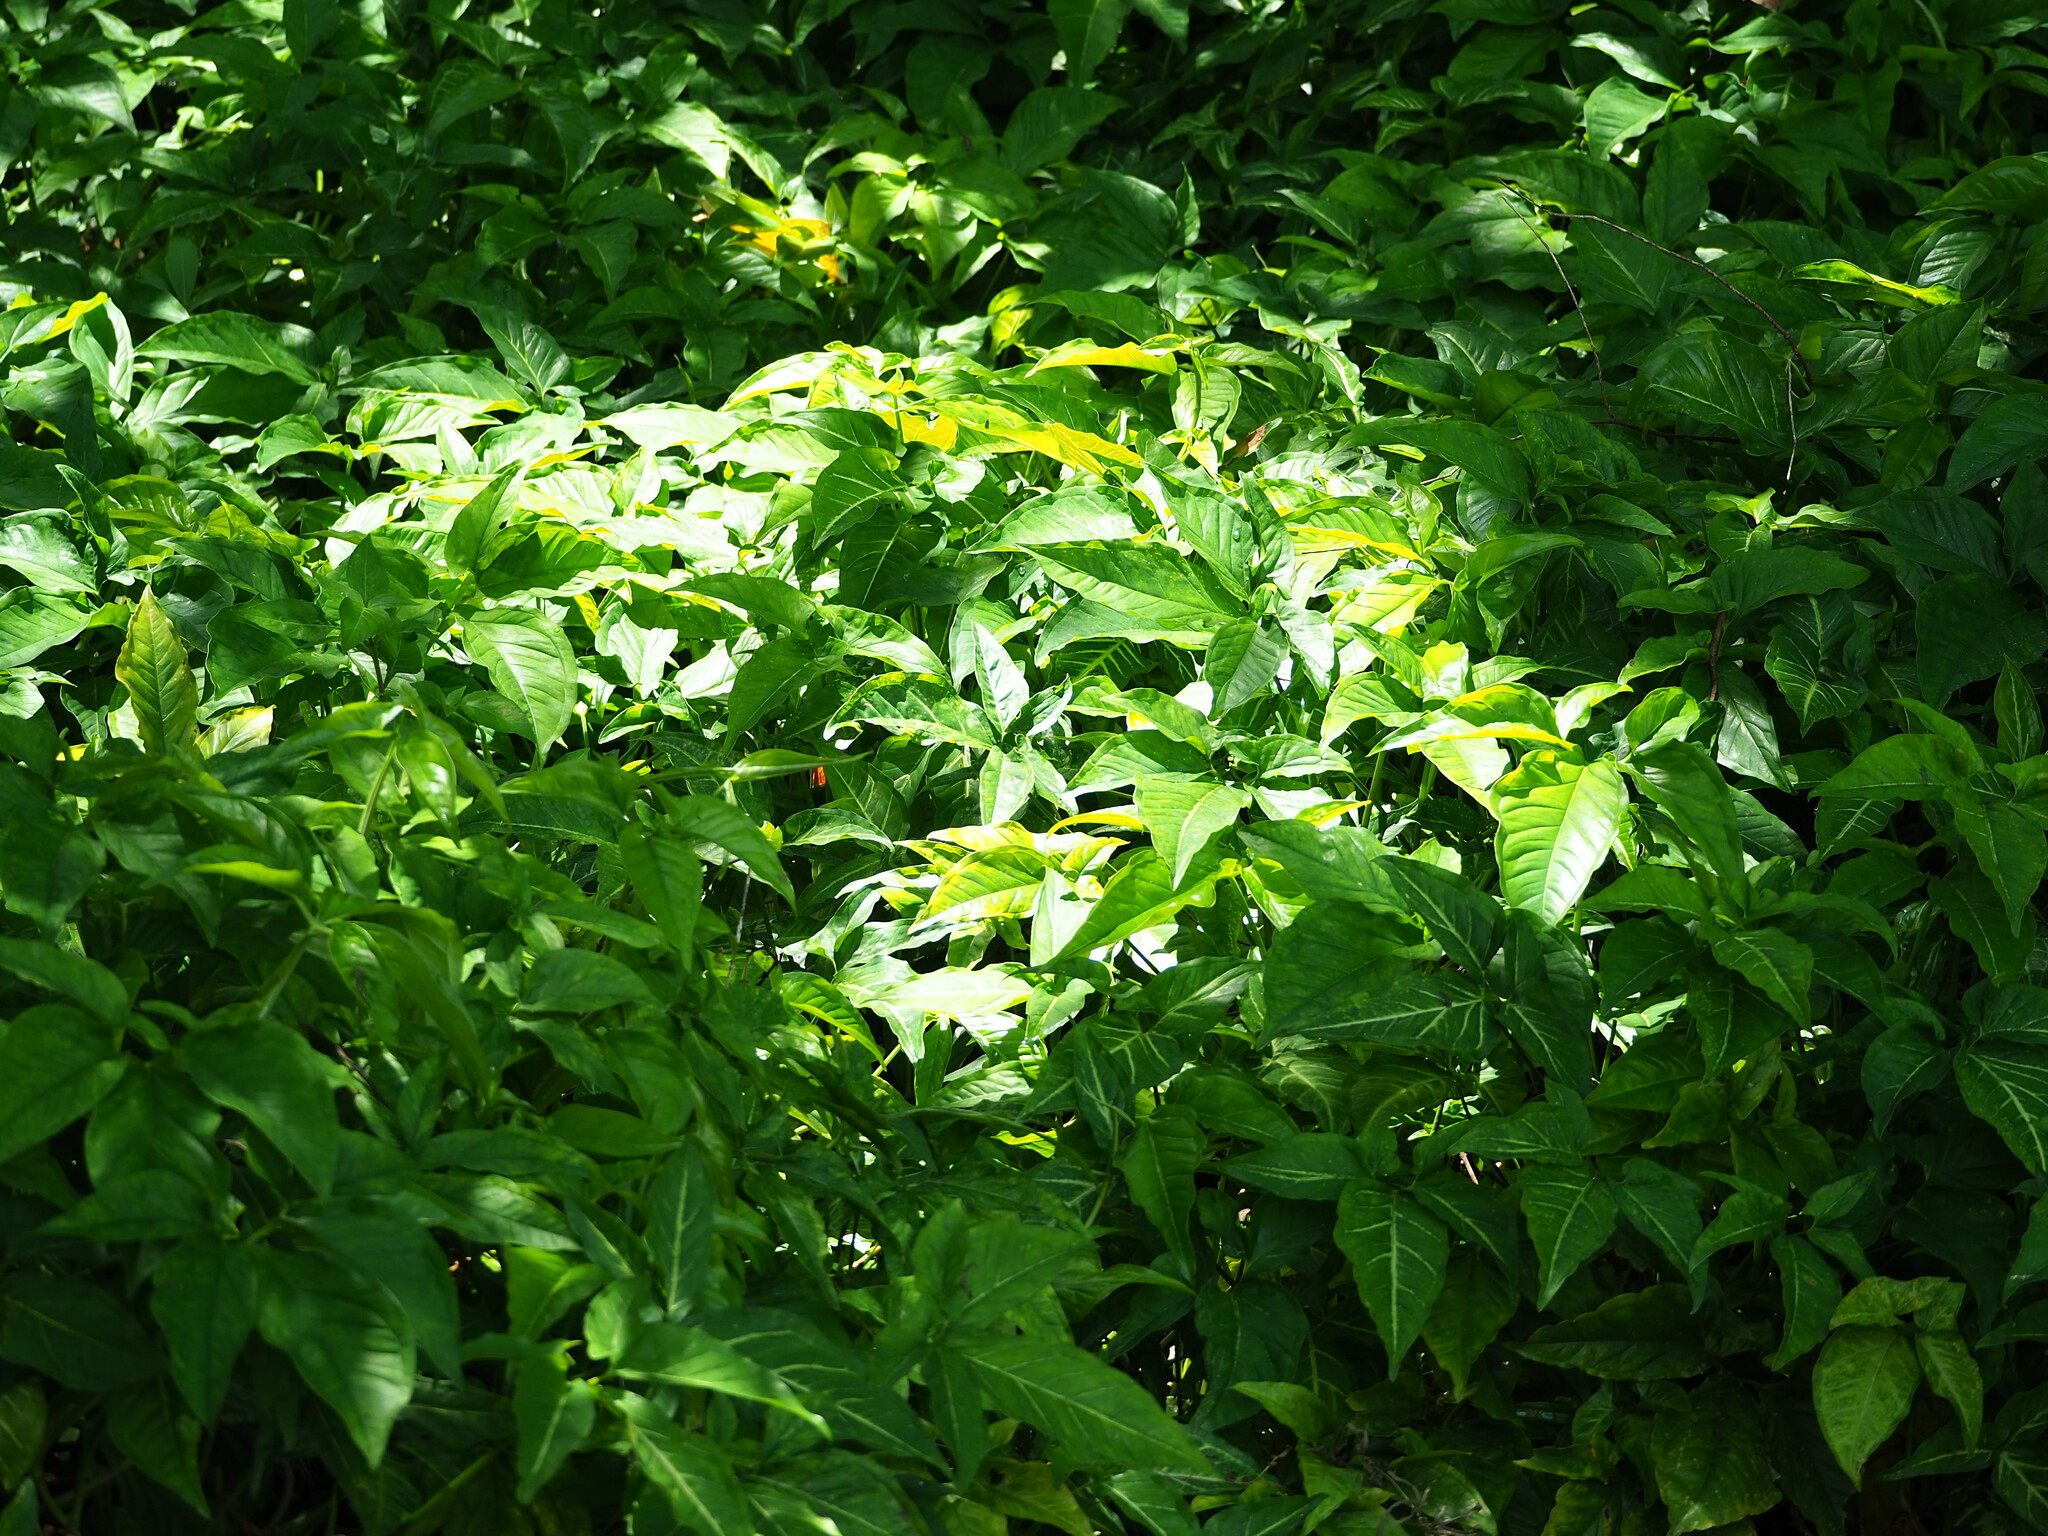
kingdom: Plantae
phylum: Tracheophyta
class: Liliopsida
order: Alismatales
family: Araceae
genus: Syngonium
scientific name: Syngonium angustatum
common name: Fivefingers
